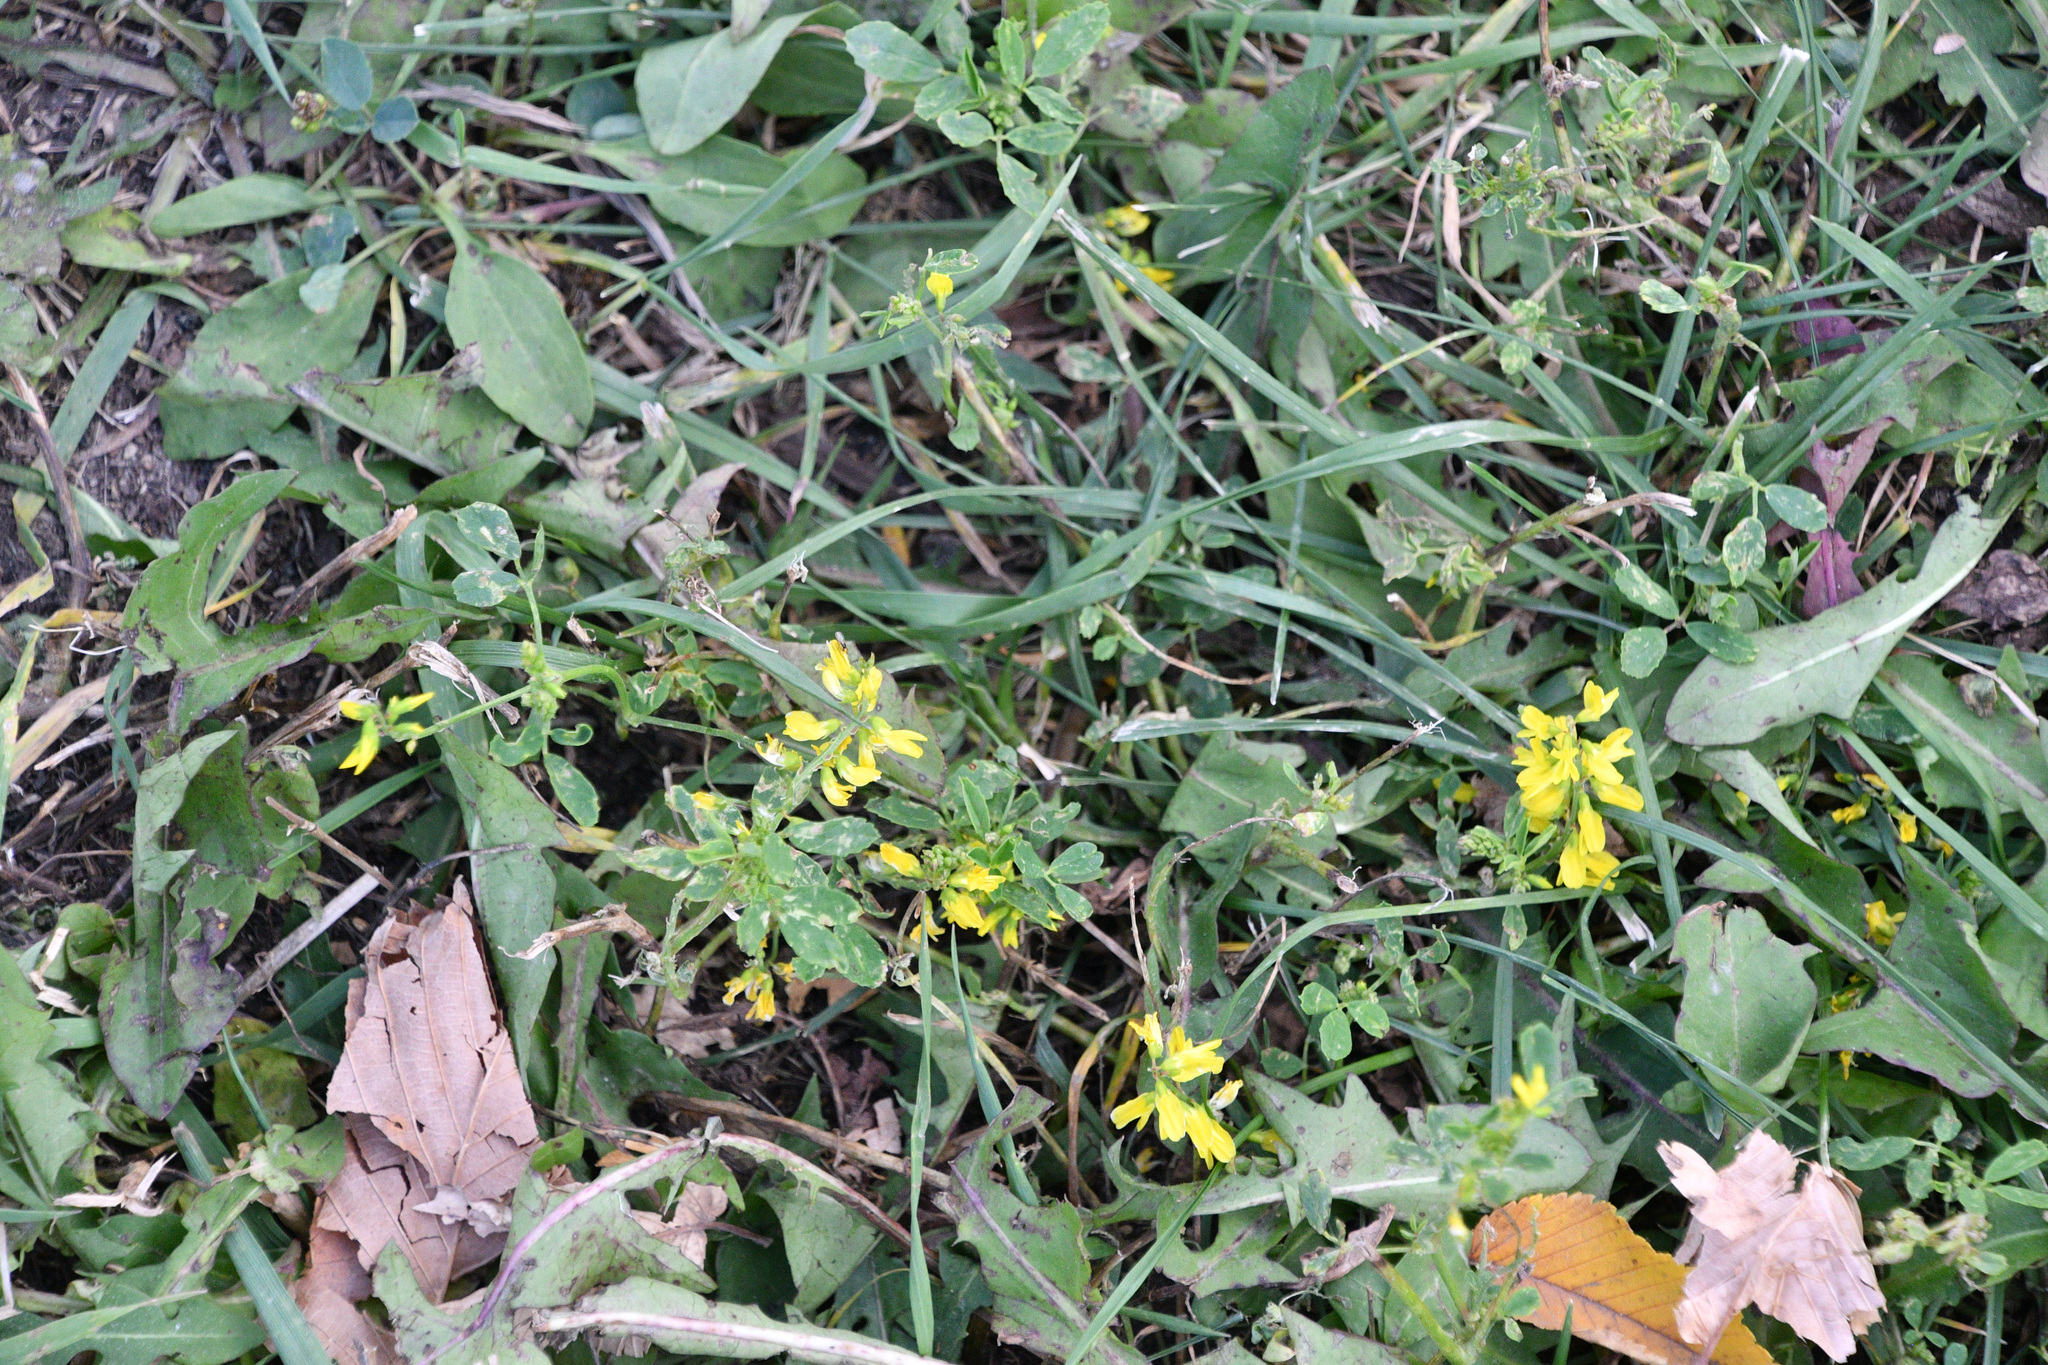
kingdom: Plantae
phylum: Tracheophyta
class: Magnoliopsida
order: Fabales
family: Fabaceae
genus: Melilotus
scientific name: Melilotus officinalis
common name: Sweetclover
